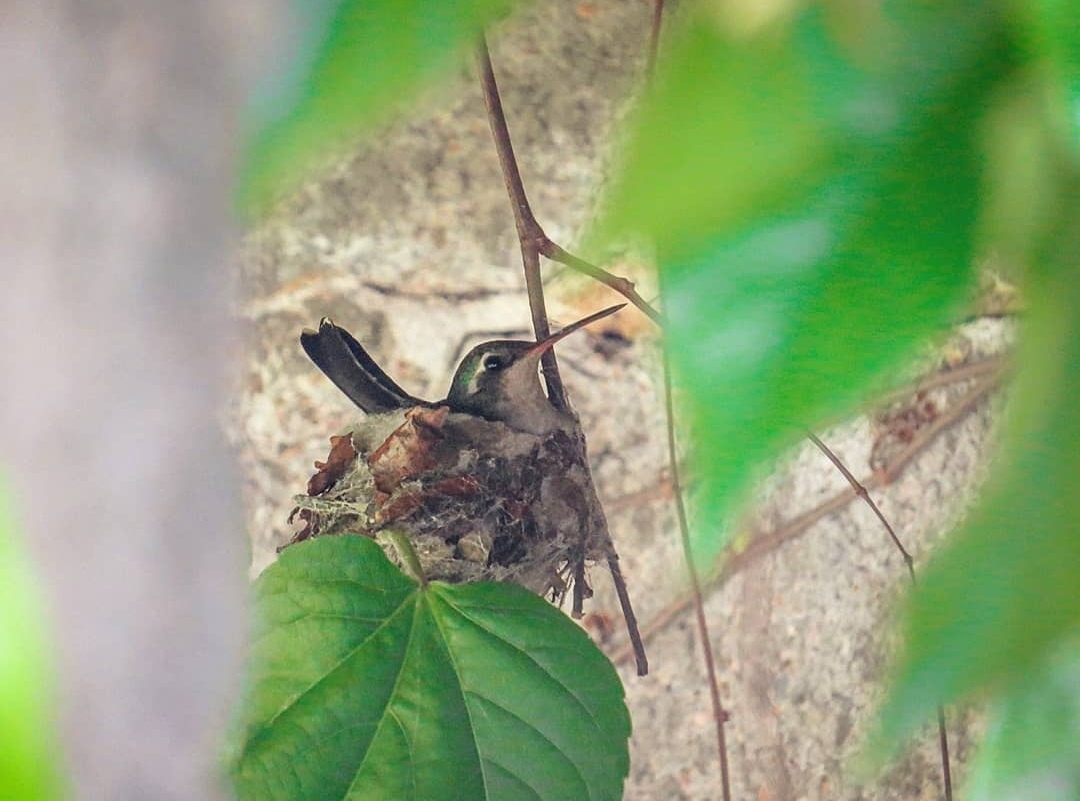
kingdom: Animalia
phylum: Chordata
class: Aves
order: Apodiformes
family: Trochilidae
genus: Chlorostilbon
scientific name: Chlorostilbon lucidus
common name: Glittering-bellied emerald
